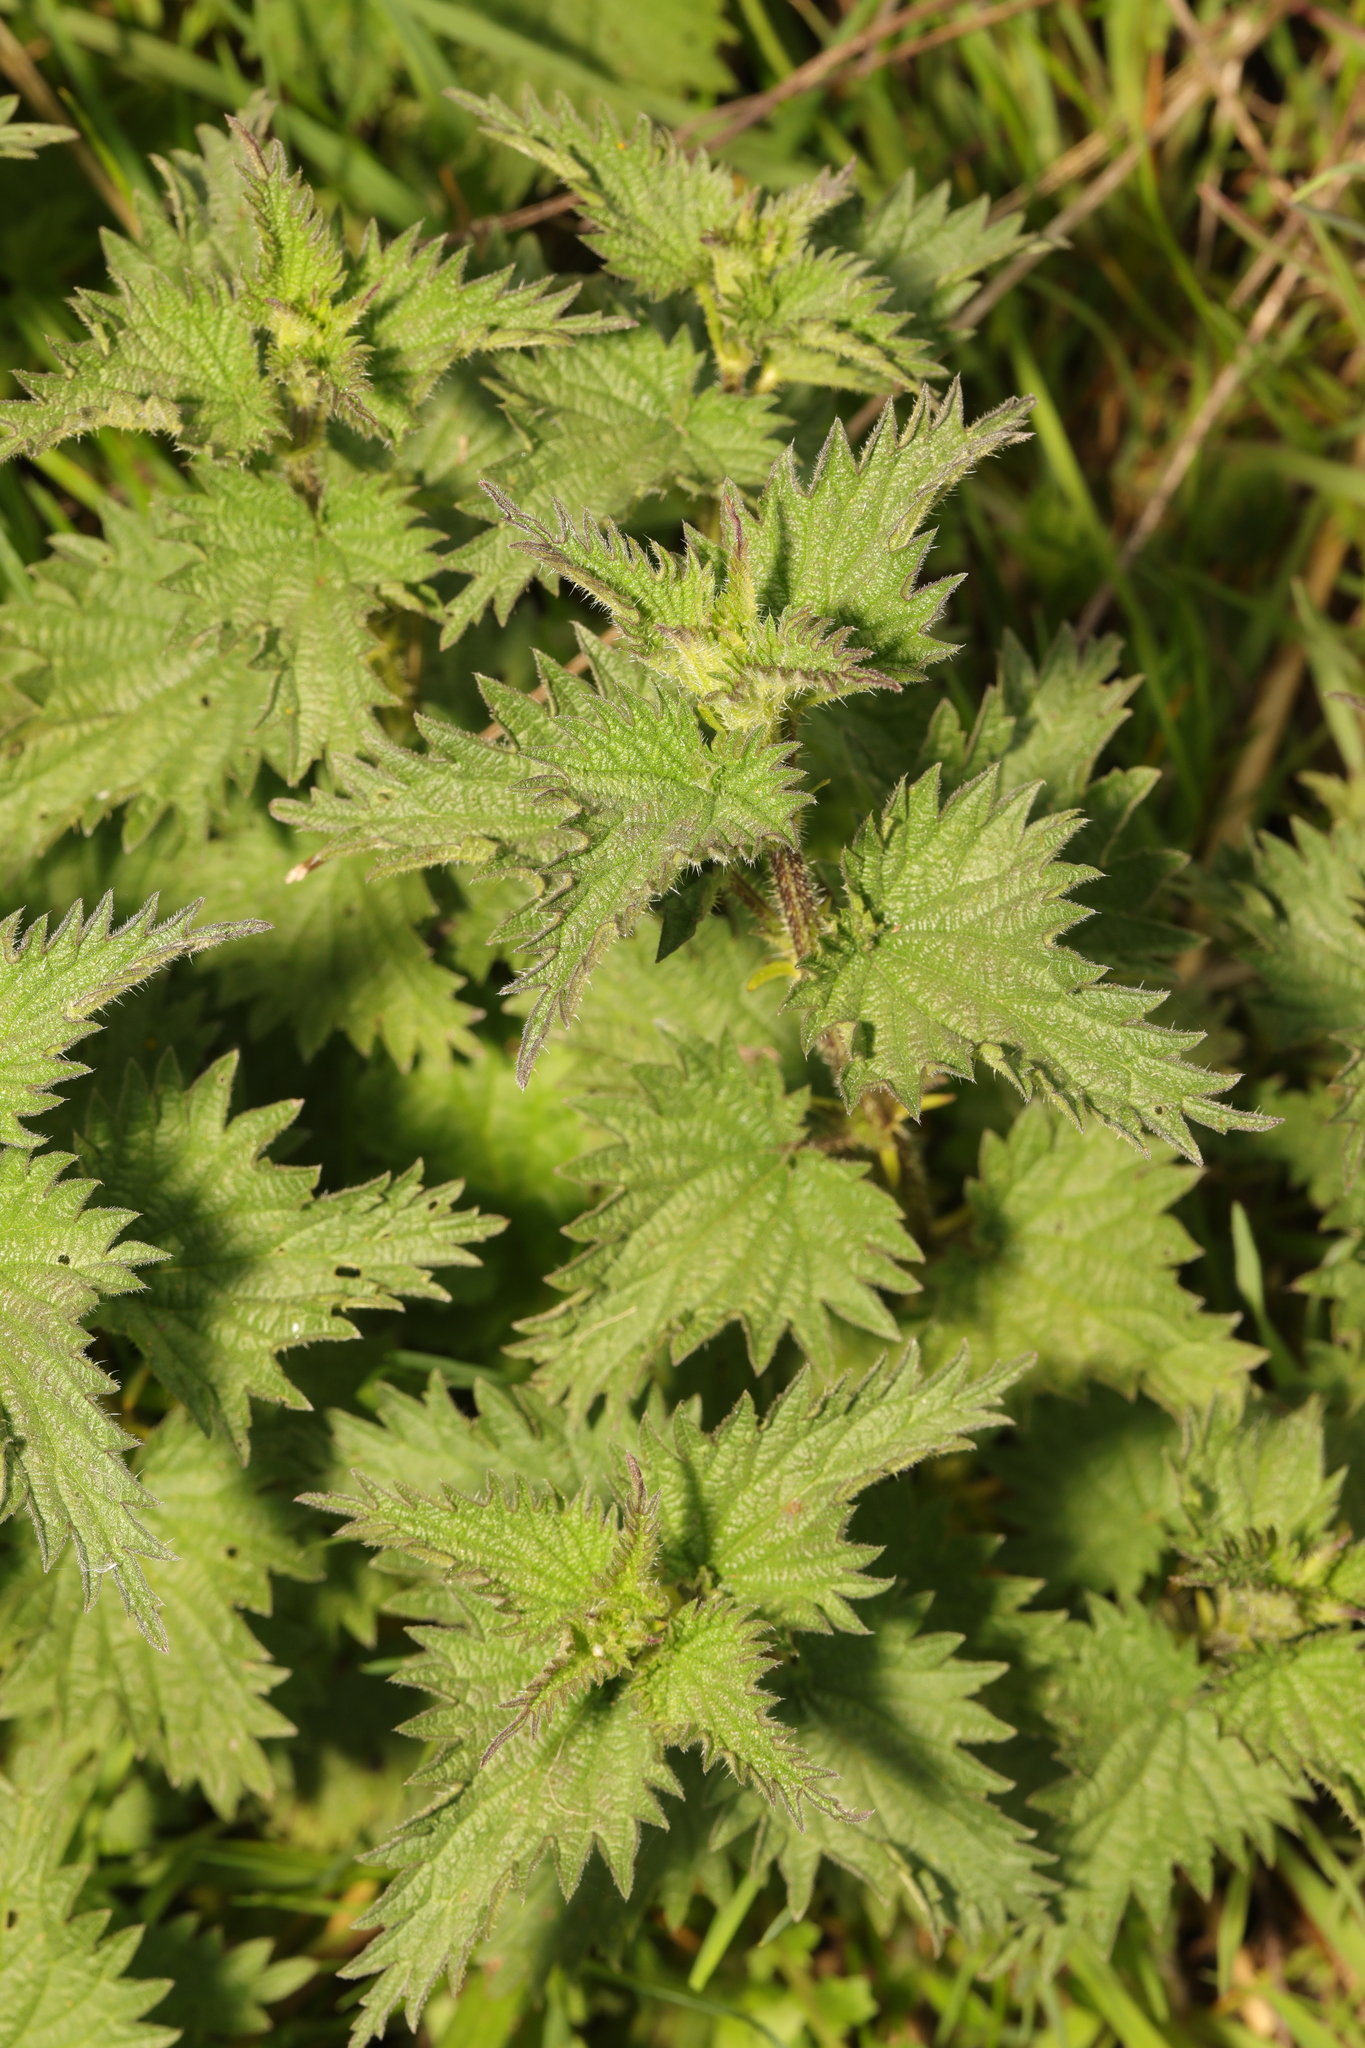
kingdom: Plantae
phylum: Tracheophyta
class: Magnoliopsida
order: Rosales
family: Urticaceae
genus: Urtica
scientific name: Urtica dioica
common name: Common nettle
